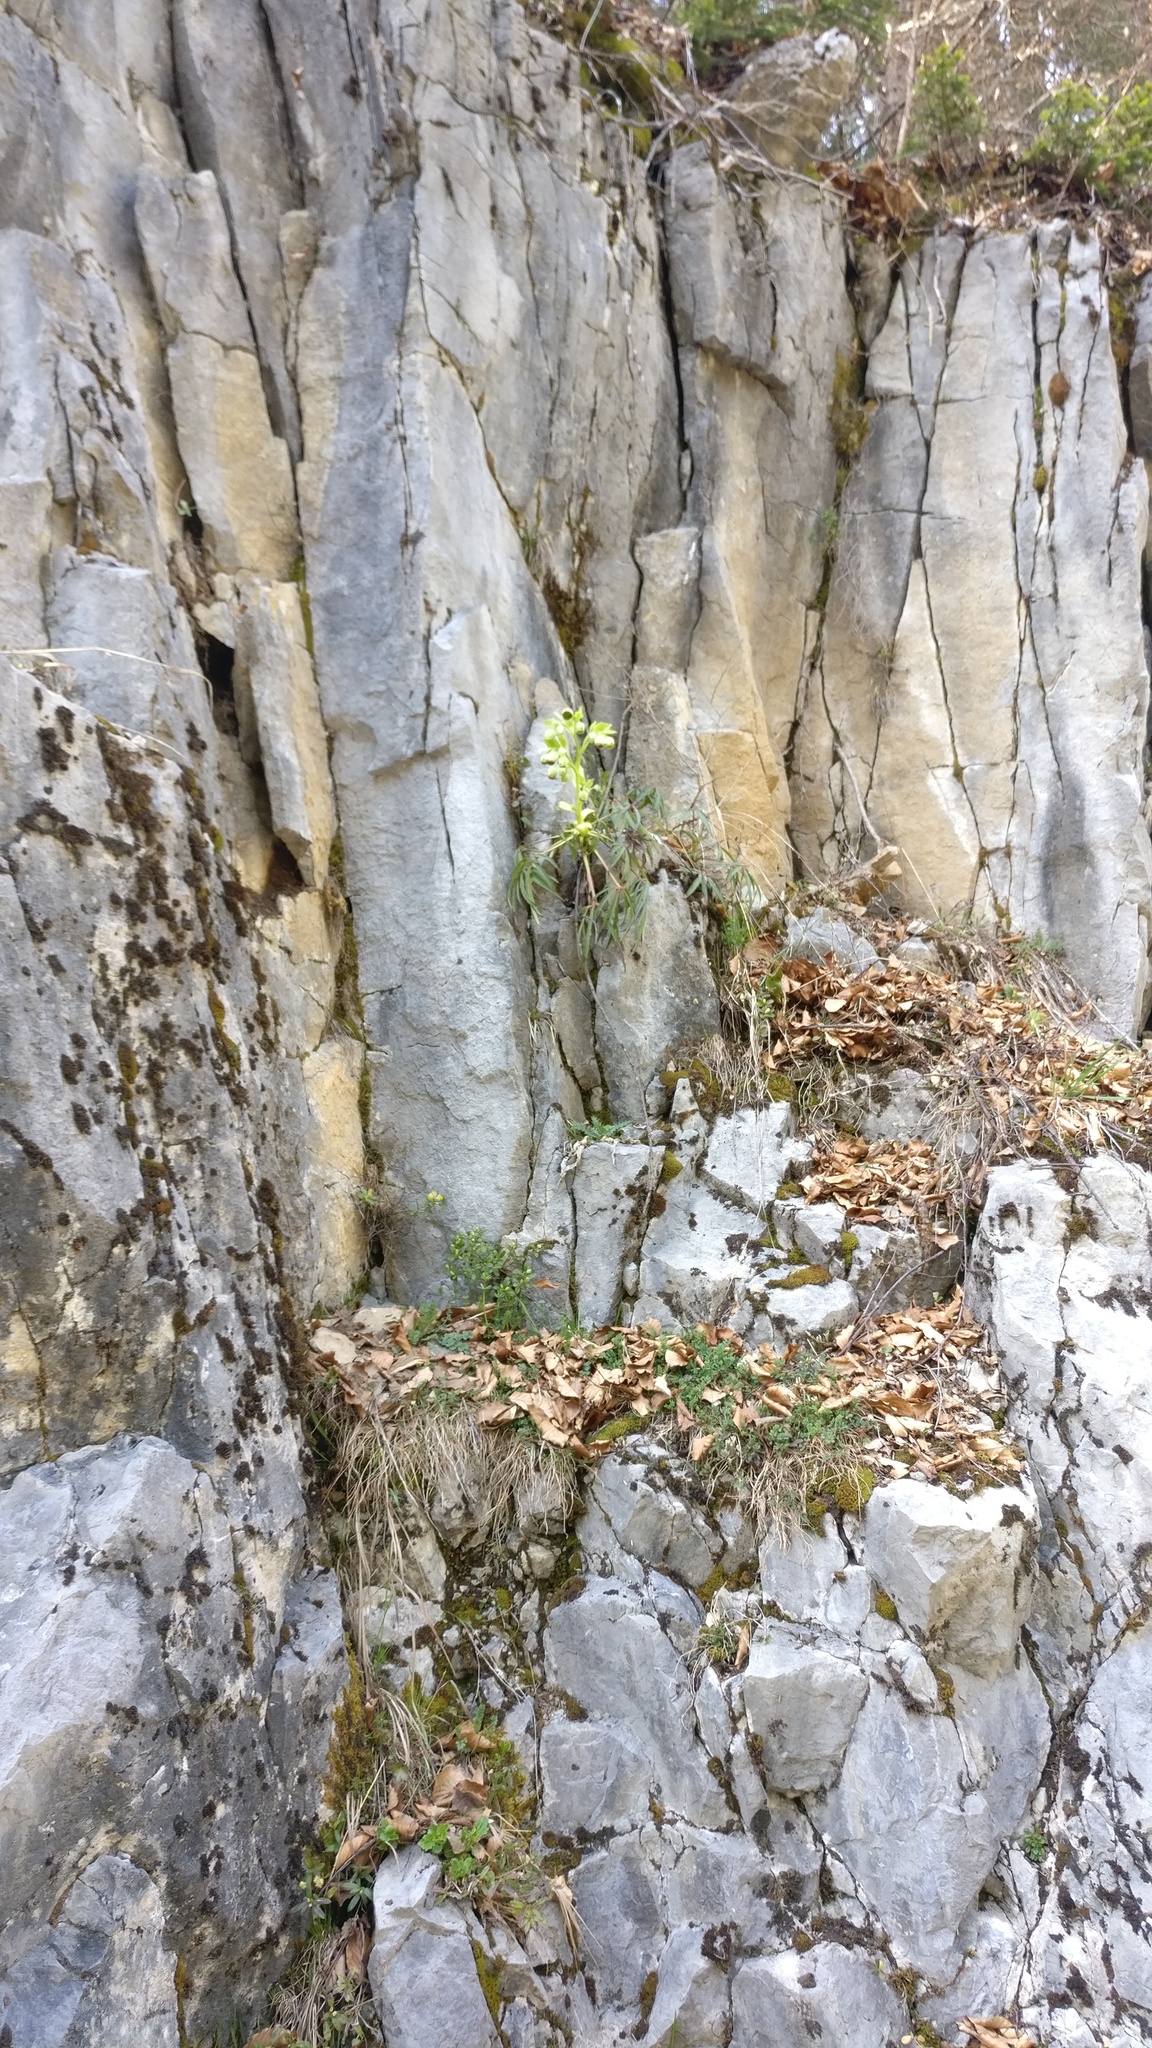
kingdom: Plantae
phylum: Tracheophyta
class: Magnoliopsida
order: Ranunculales
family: Ranunculaceae
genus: Helleborus
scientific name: Helleborus foetidus
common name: Stinking hellebore
